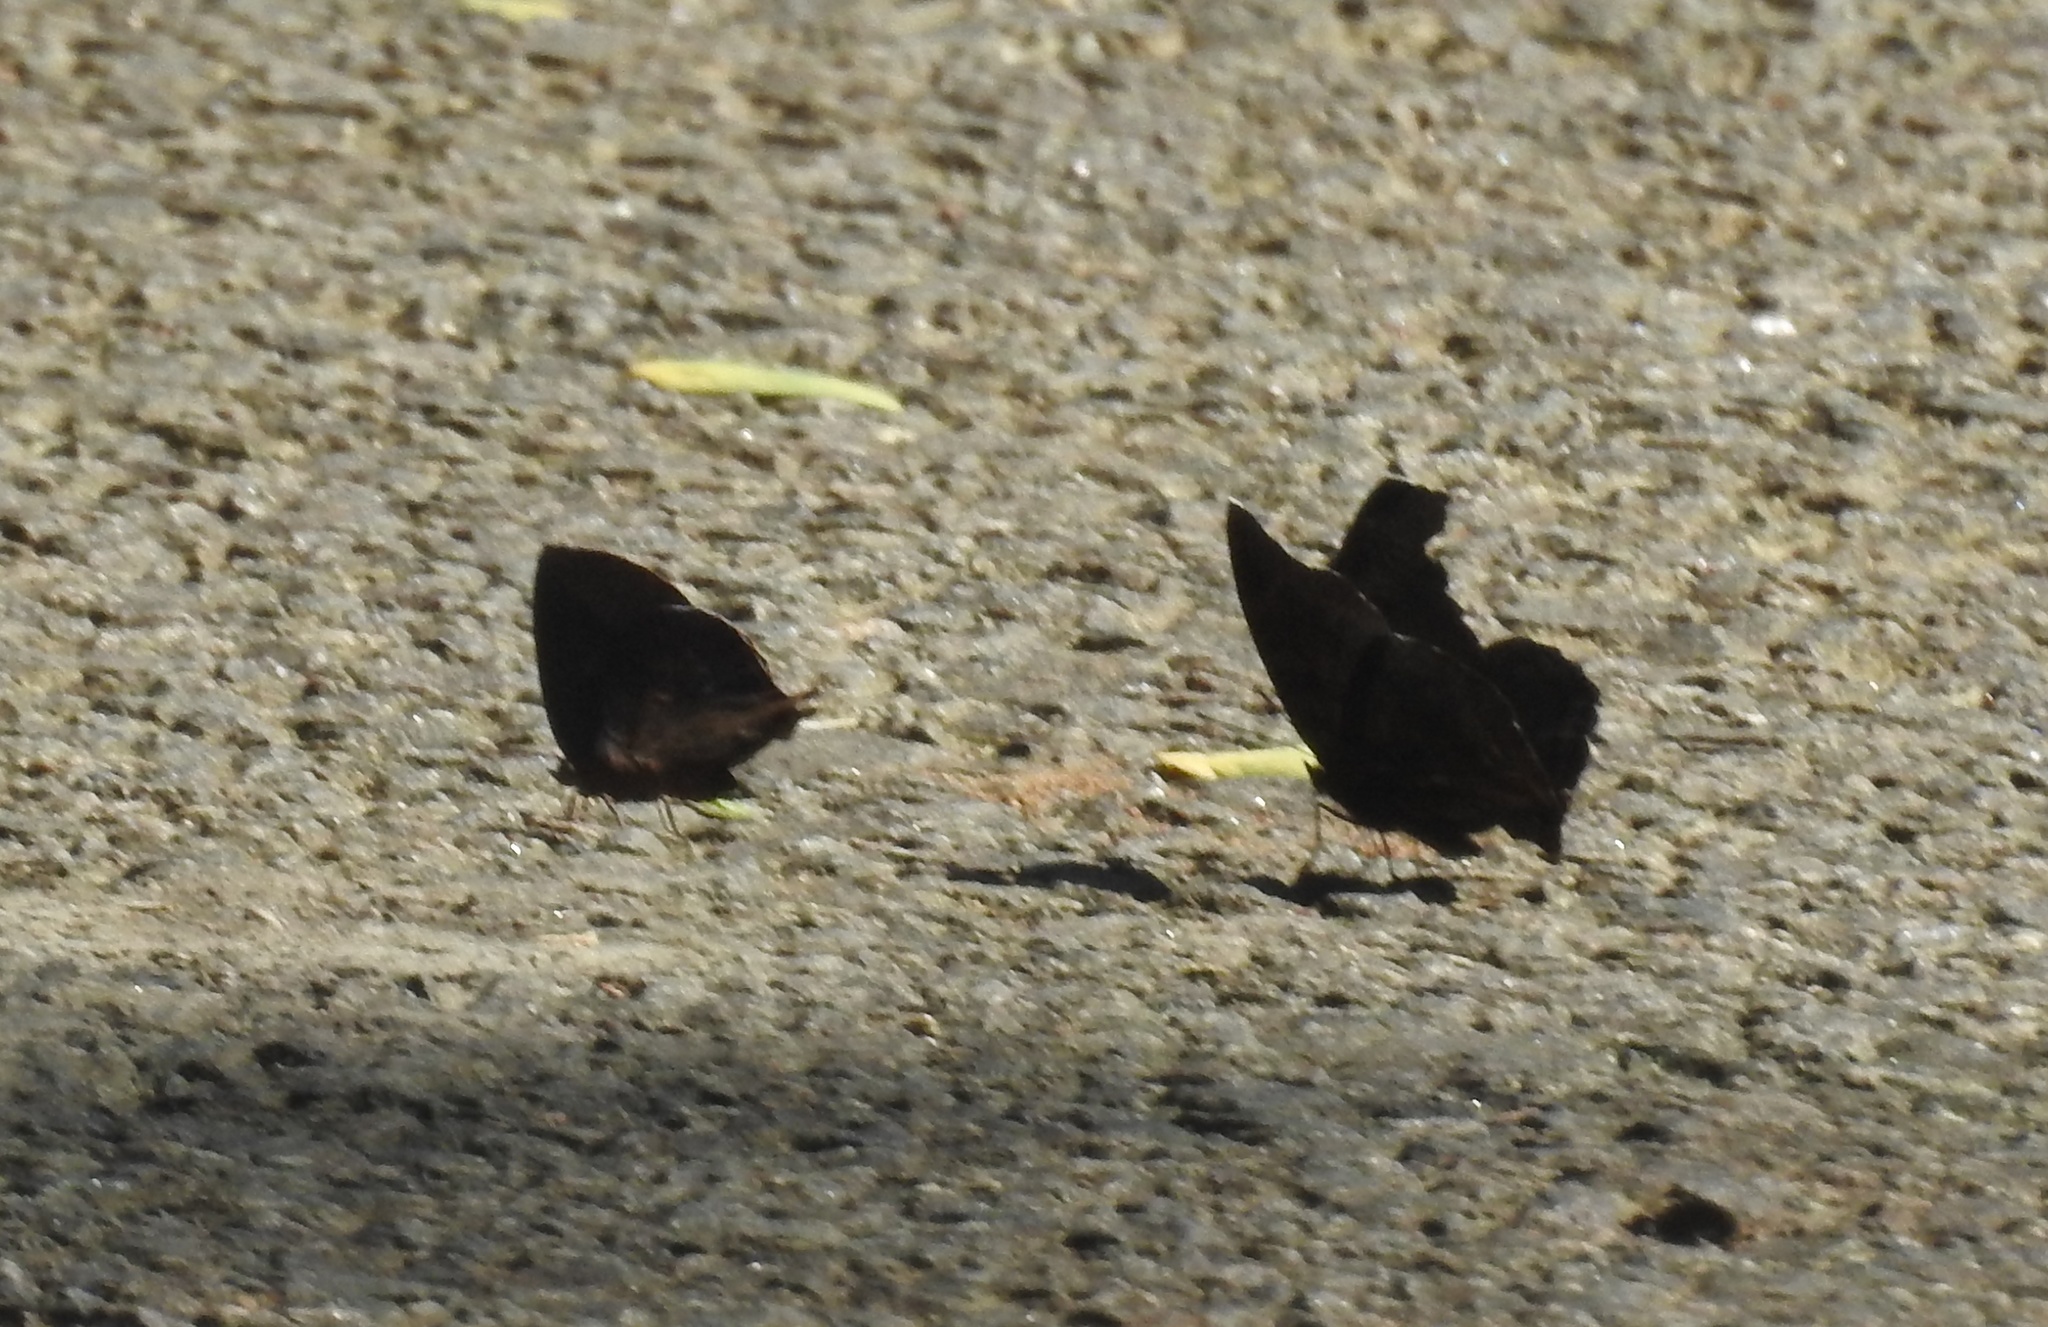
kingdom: Animalia
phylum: Arthropoda
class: Insecta
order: Lepidoptera
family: Lycaenidae
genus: Amblypodia
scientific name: Amblypodia anita
